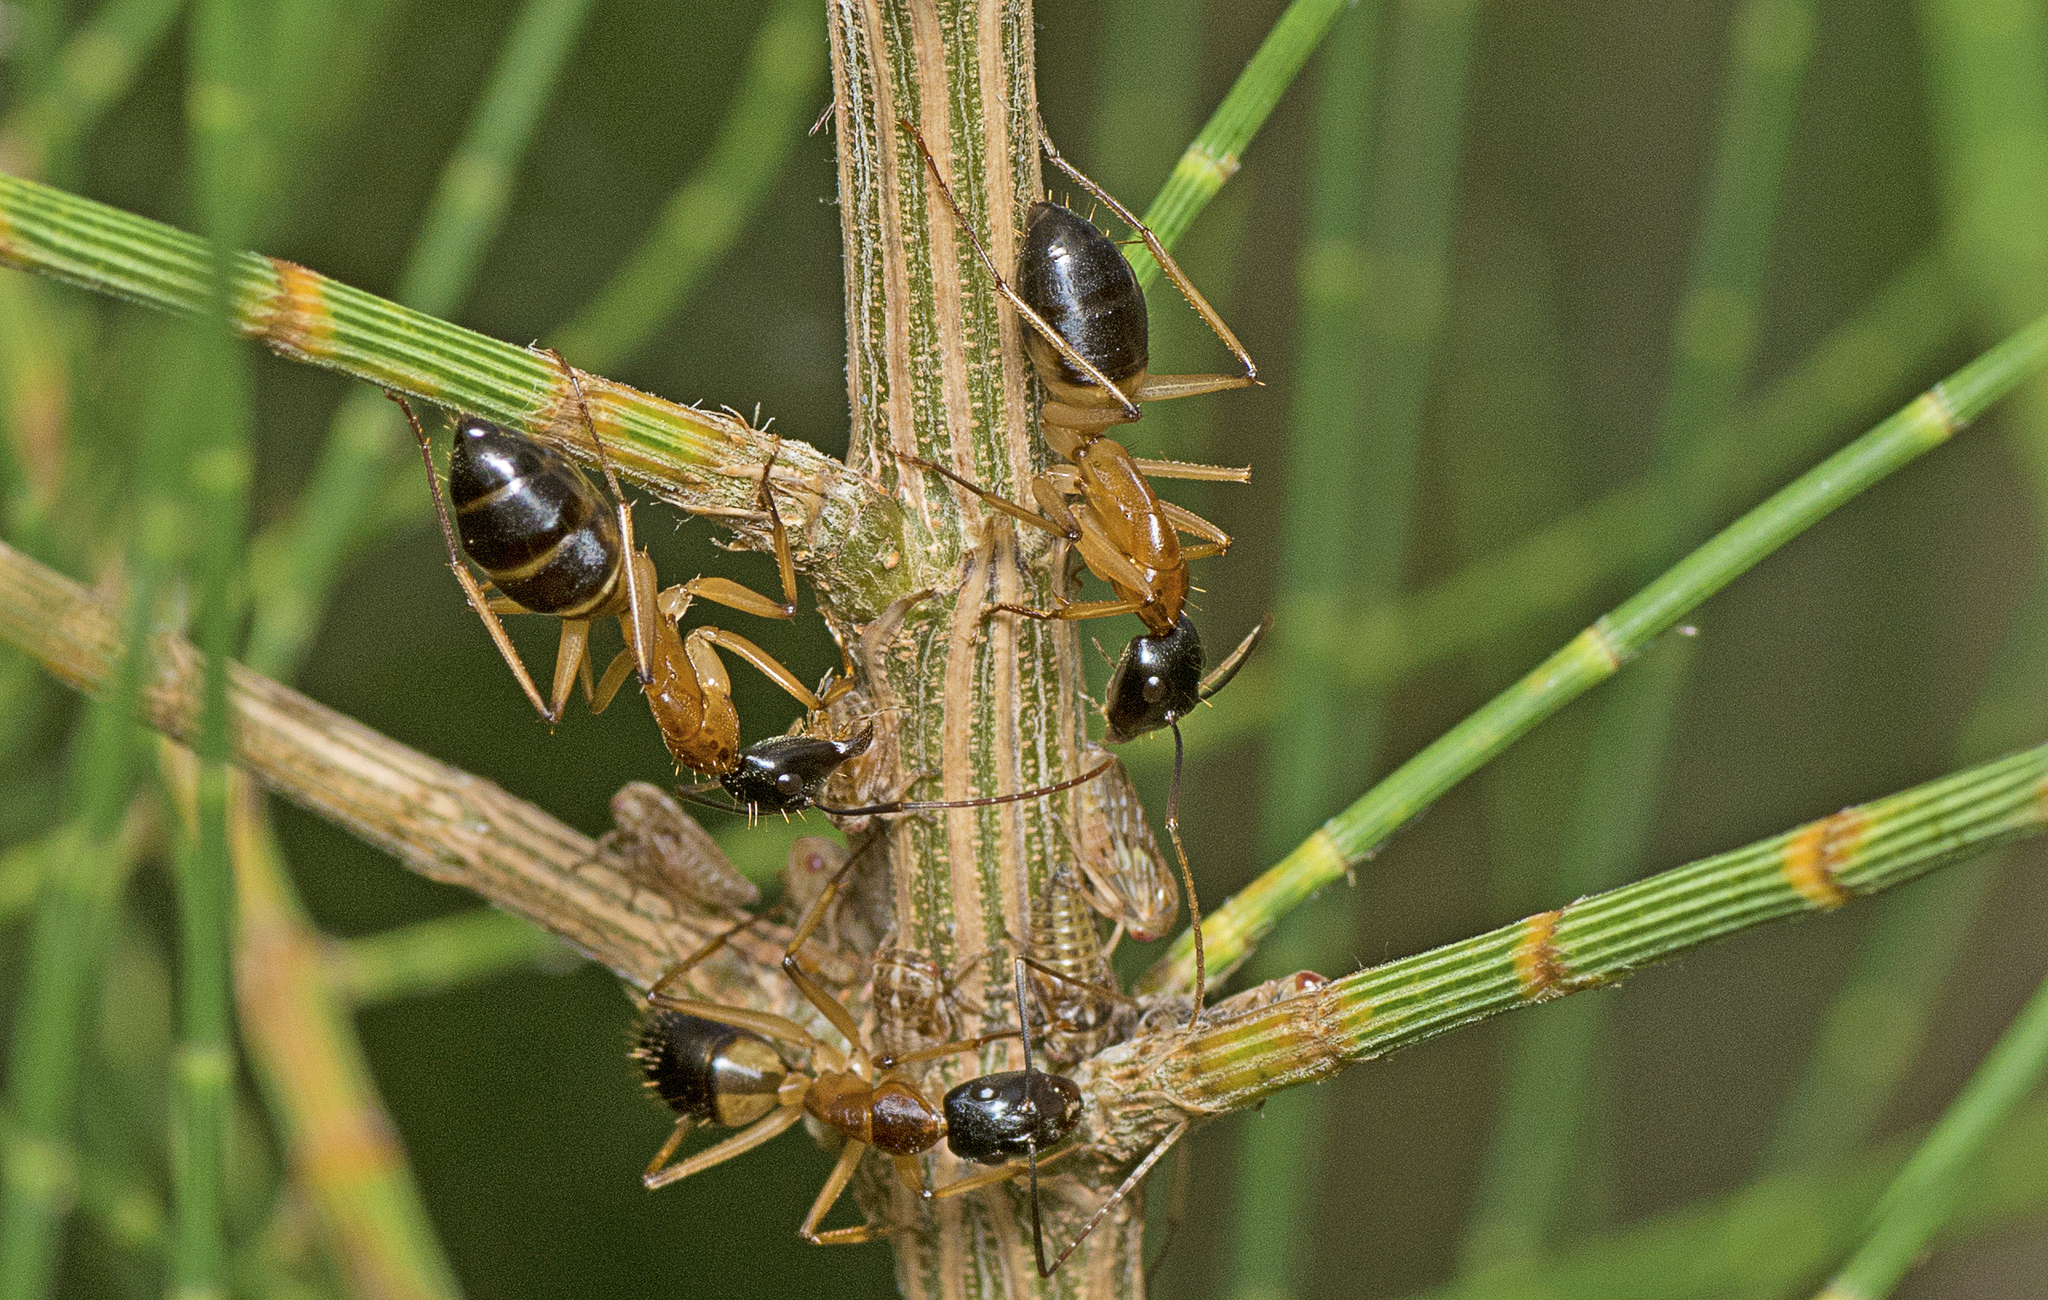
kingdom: Animalia
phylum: Arthropoda
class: Insecta
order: Hymenoptera
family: Formicidae
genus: Camponotus
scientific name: Camponotus consobrinus
